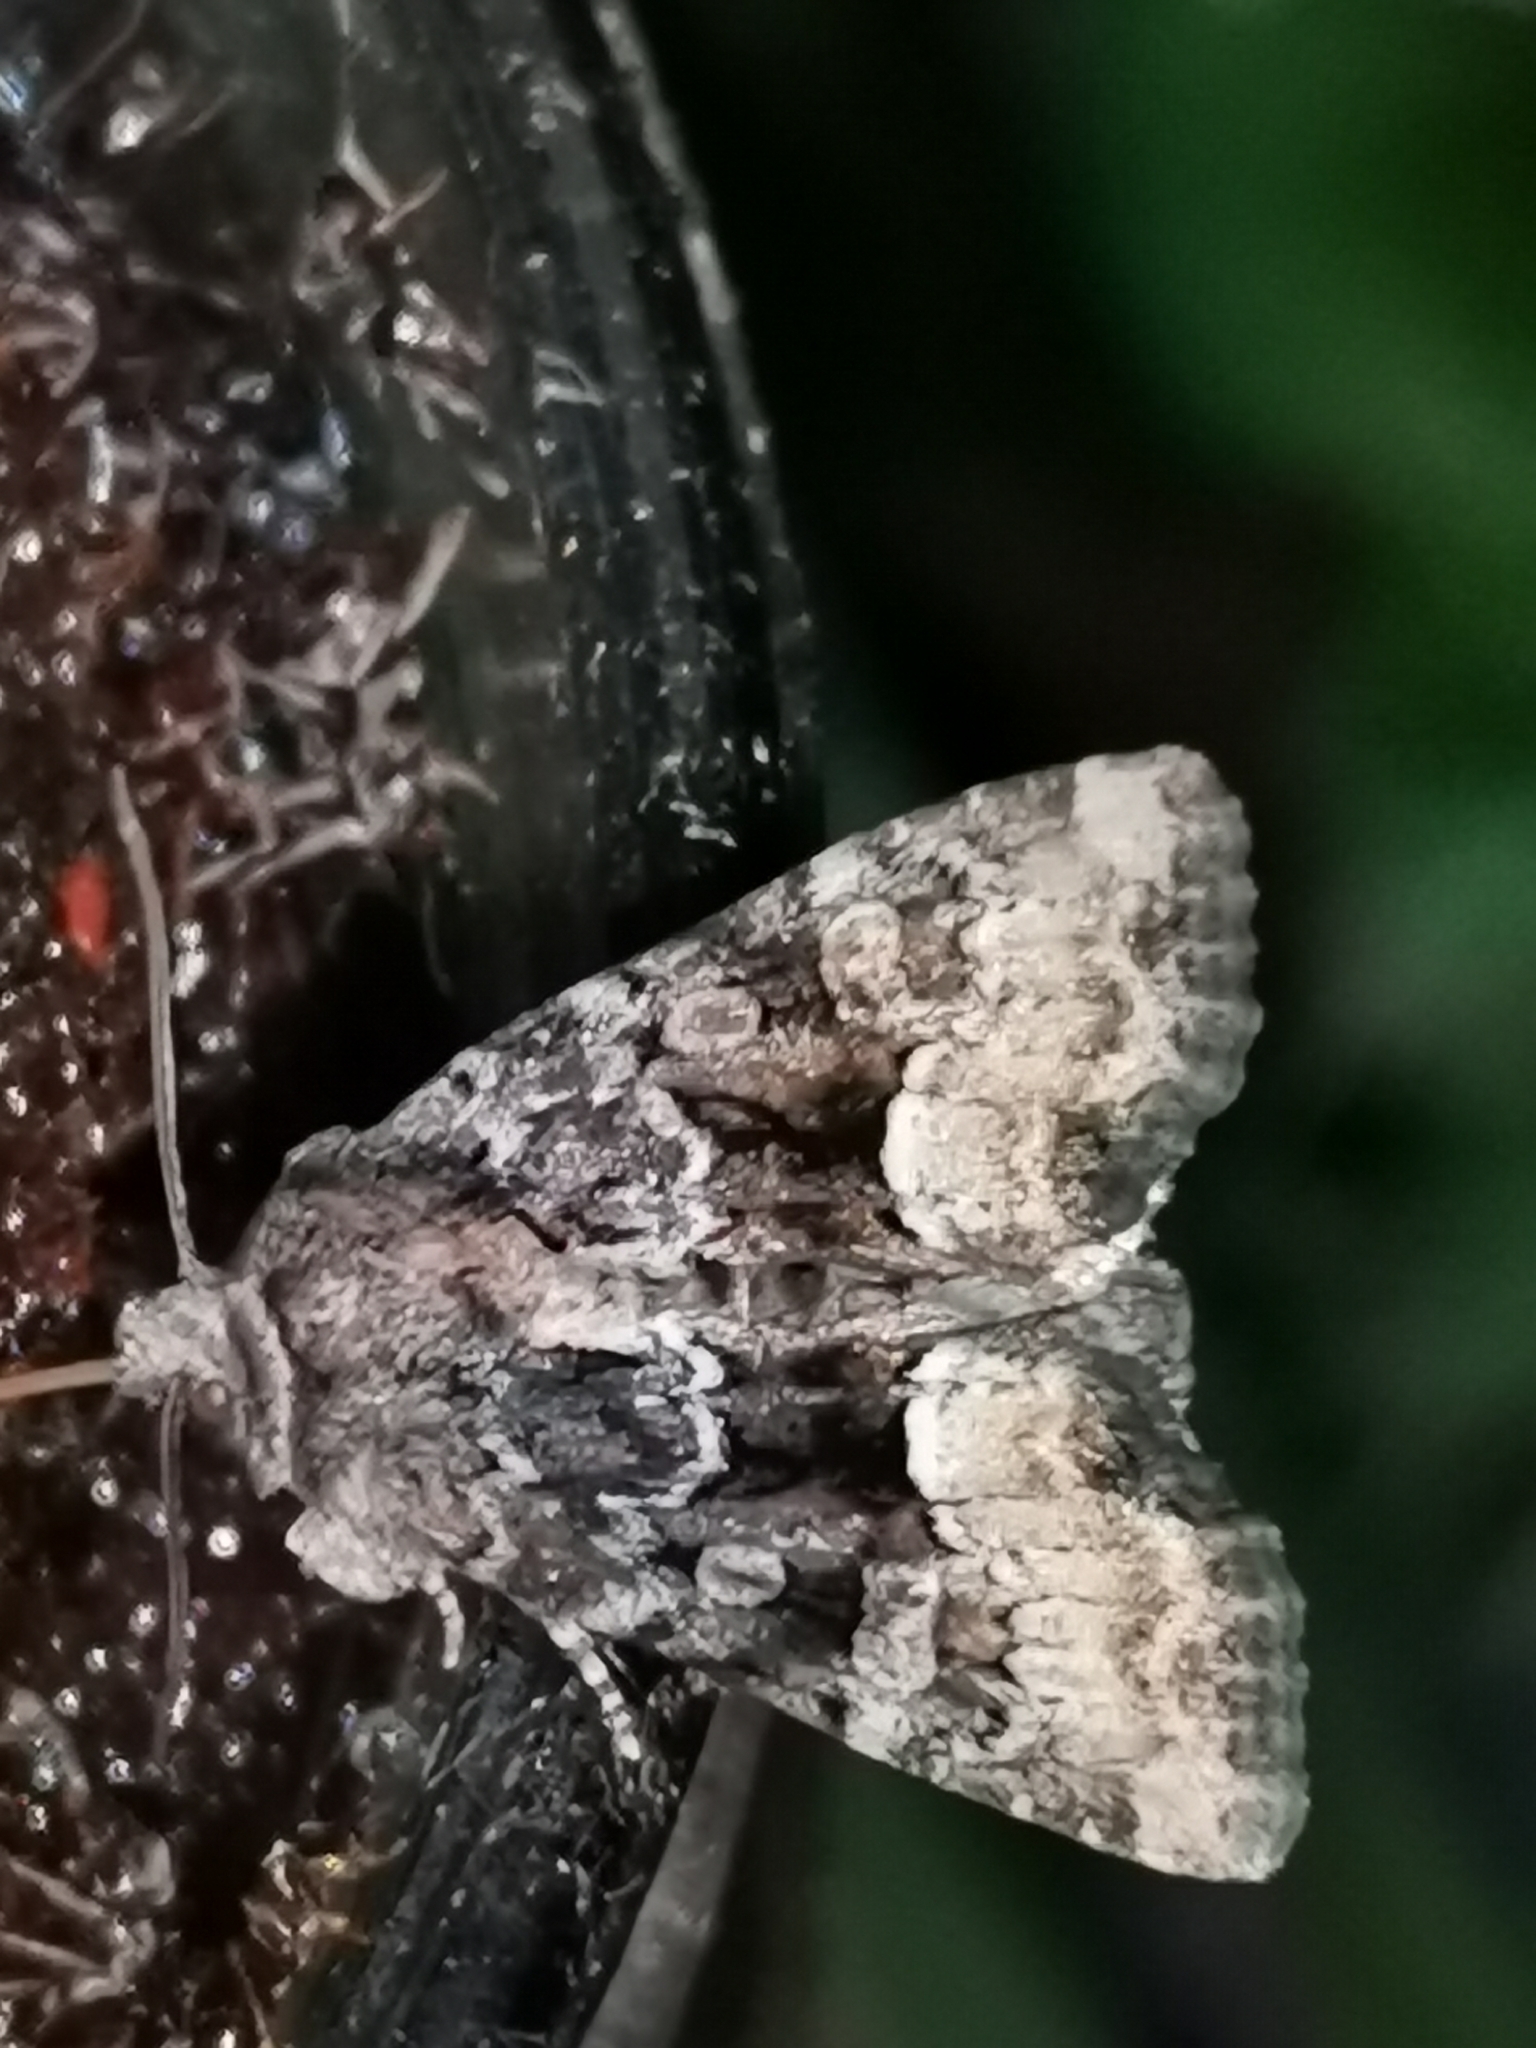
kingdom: Animalia
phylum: Arthropoda
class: Insecta
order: Lepidoptera
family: Noctuidae
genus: Oligia
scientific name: Oligia latruncula
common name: Tawny marbled minor
